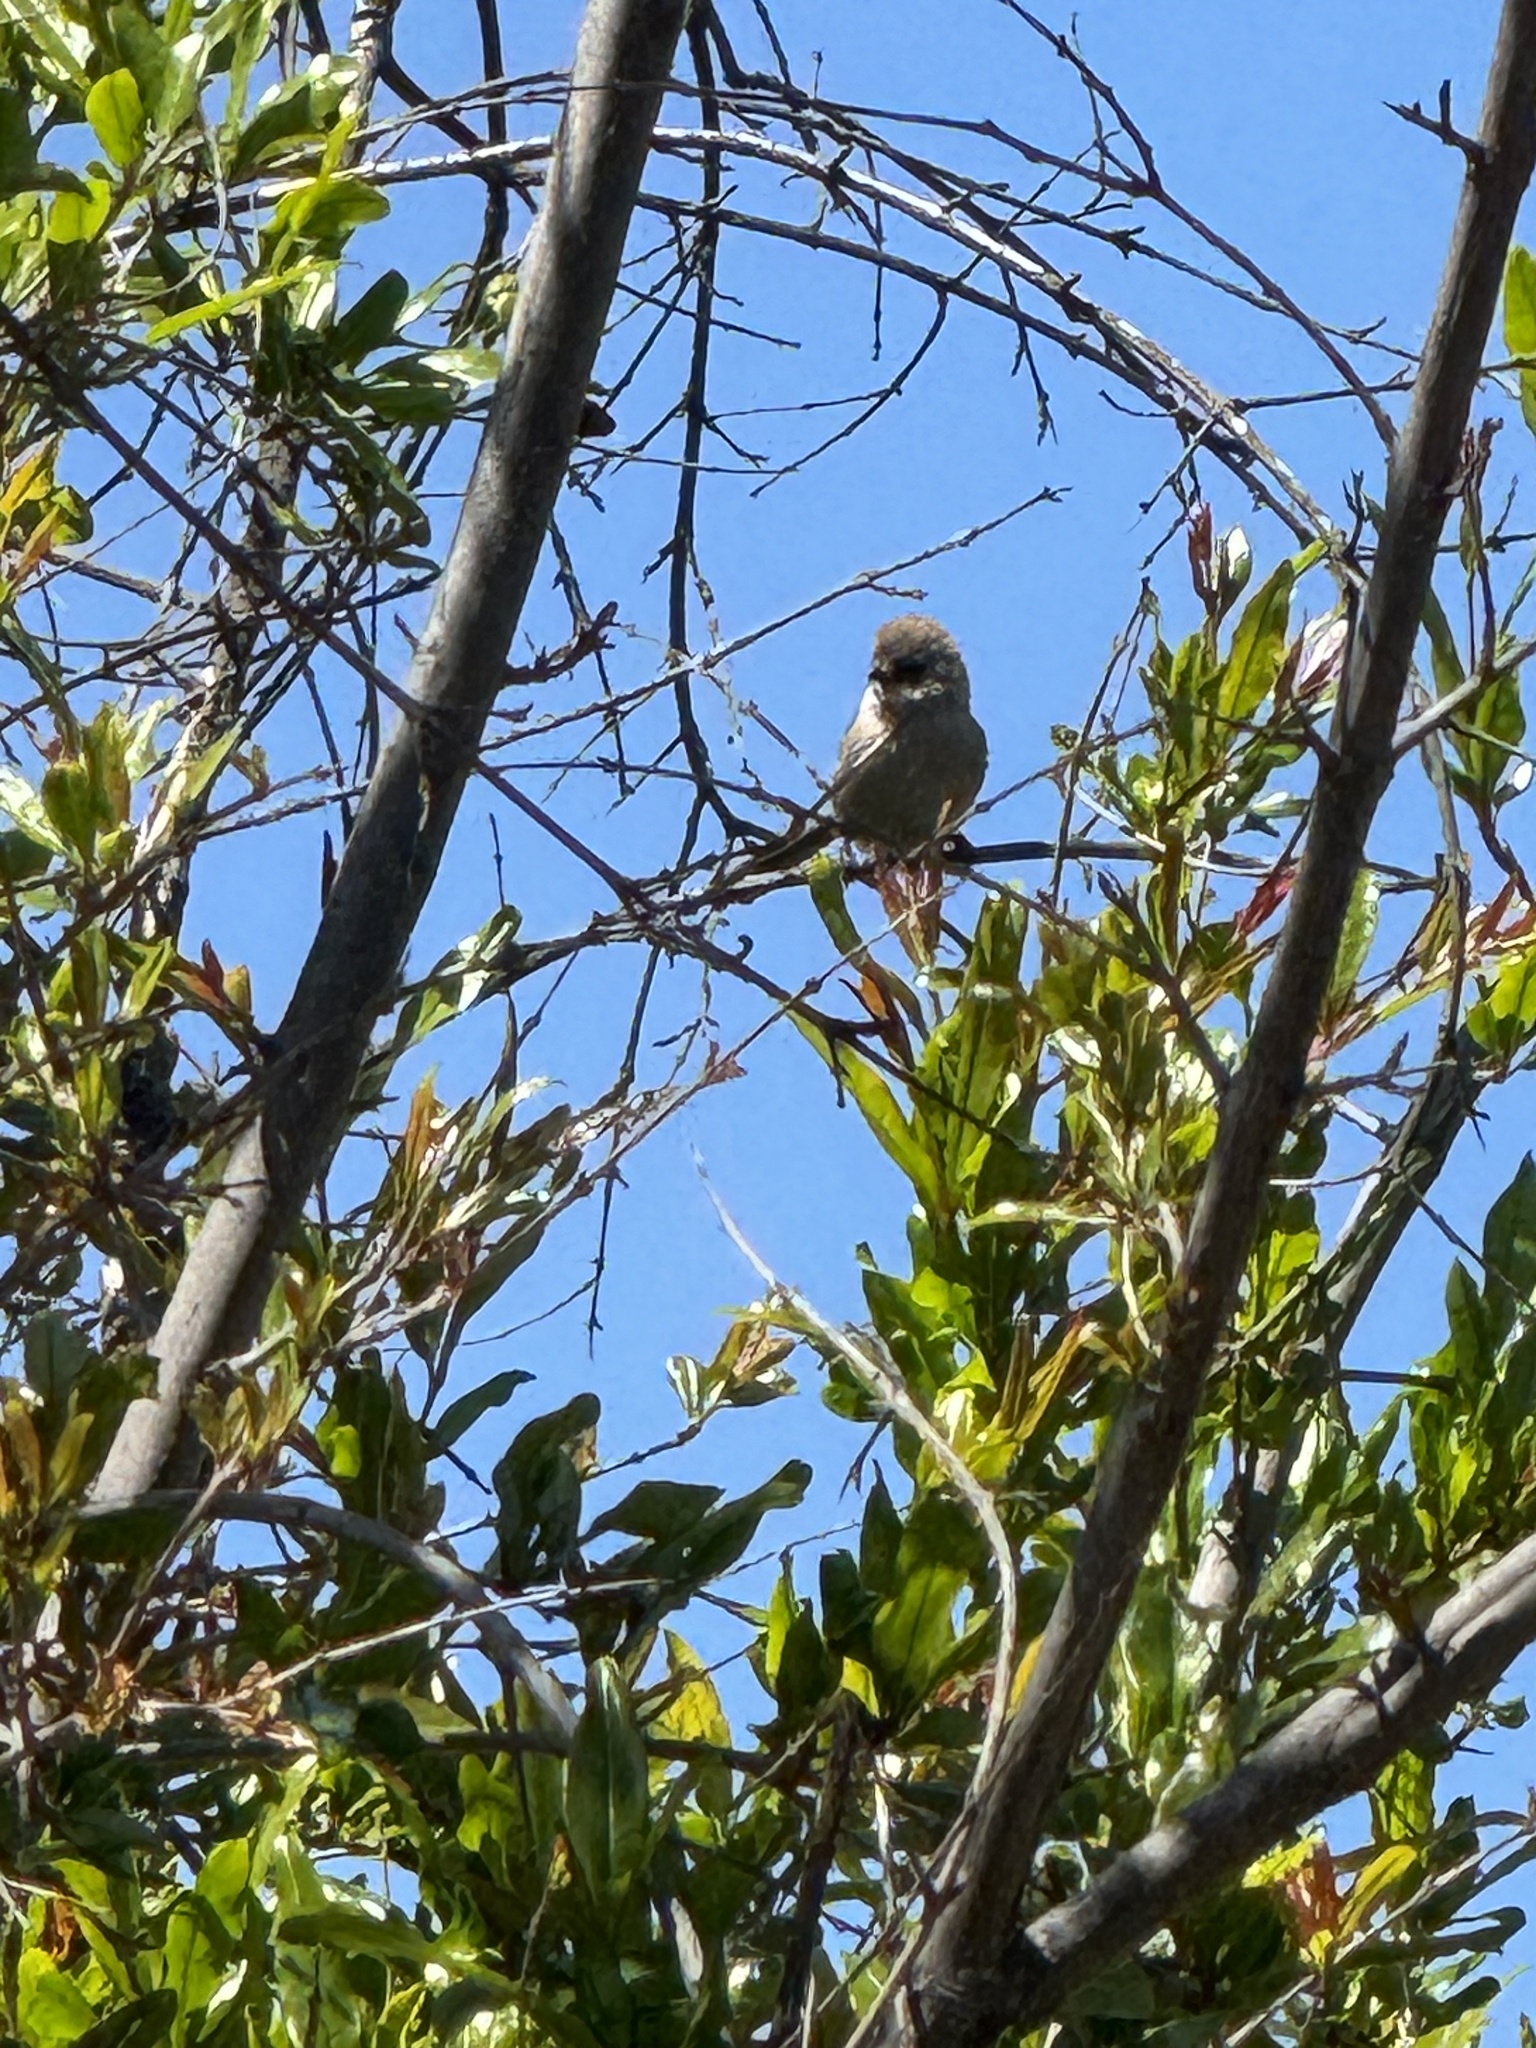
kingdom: Animalia
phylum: Chordata
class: Aves
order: Passeriformes
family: Aegithalidae
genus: Psaltriparus
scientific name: Psaltriparus minimus
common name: American bushtit
